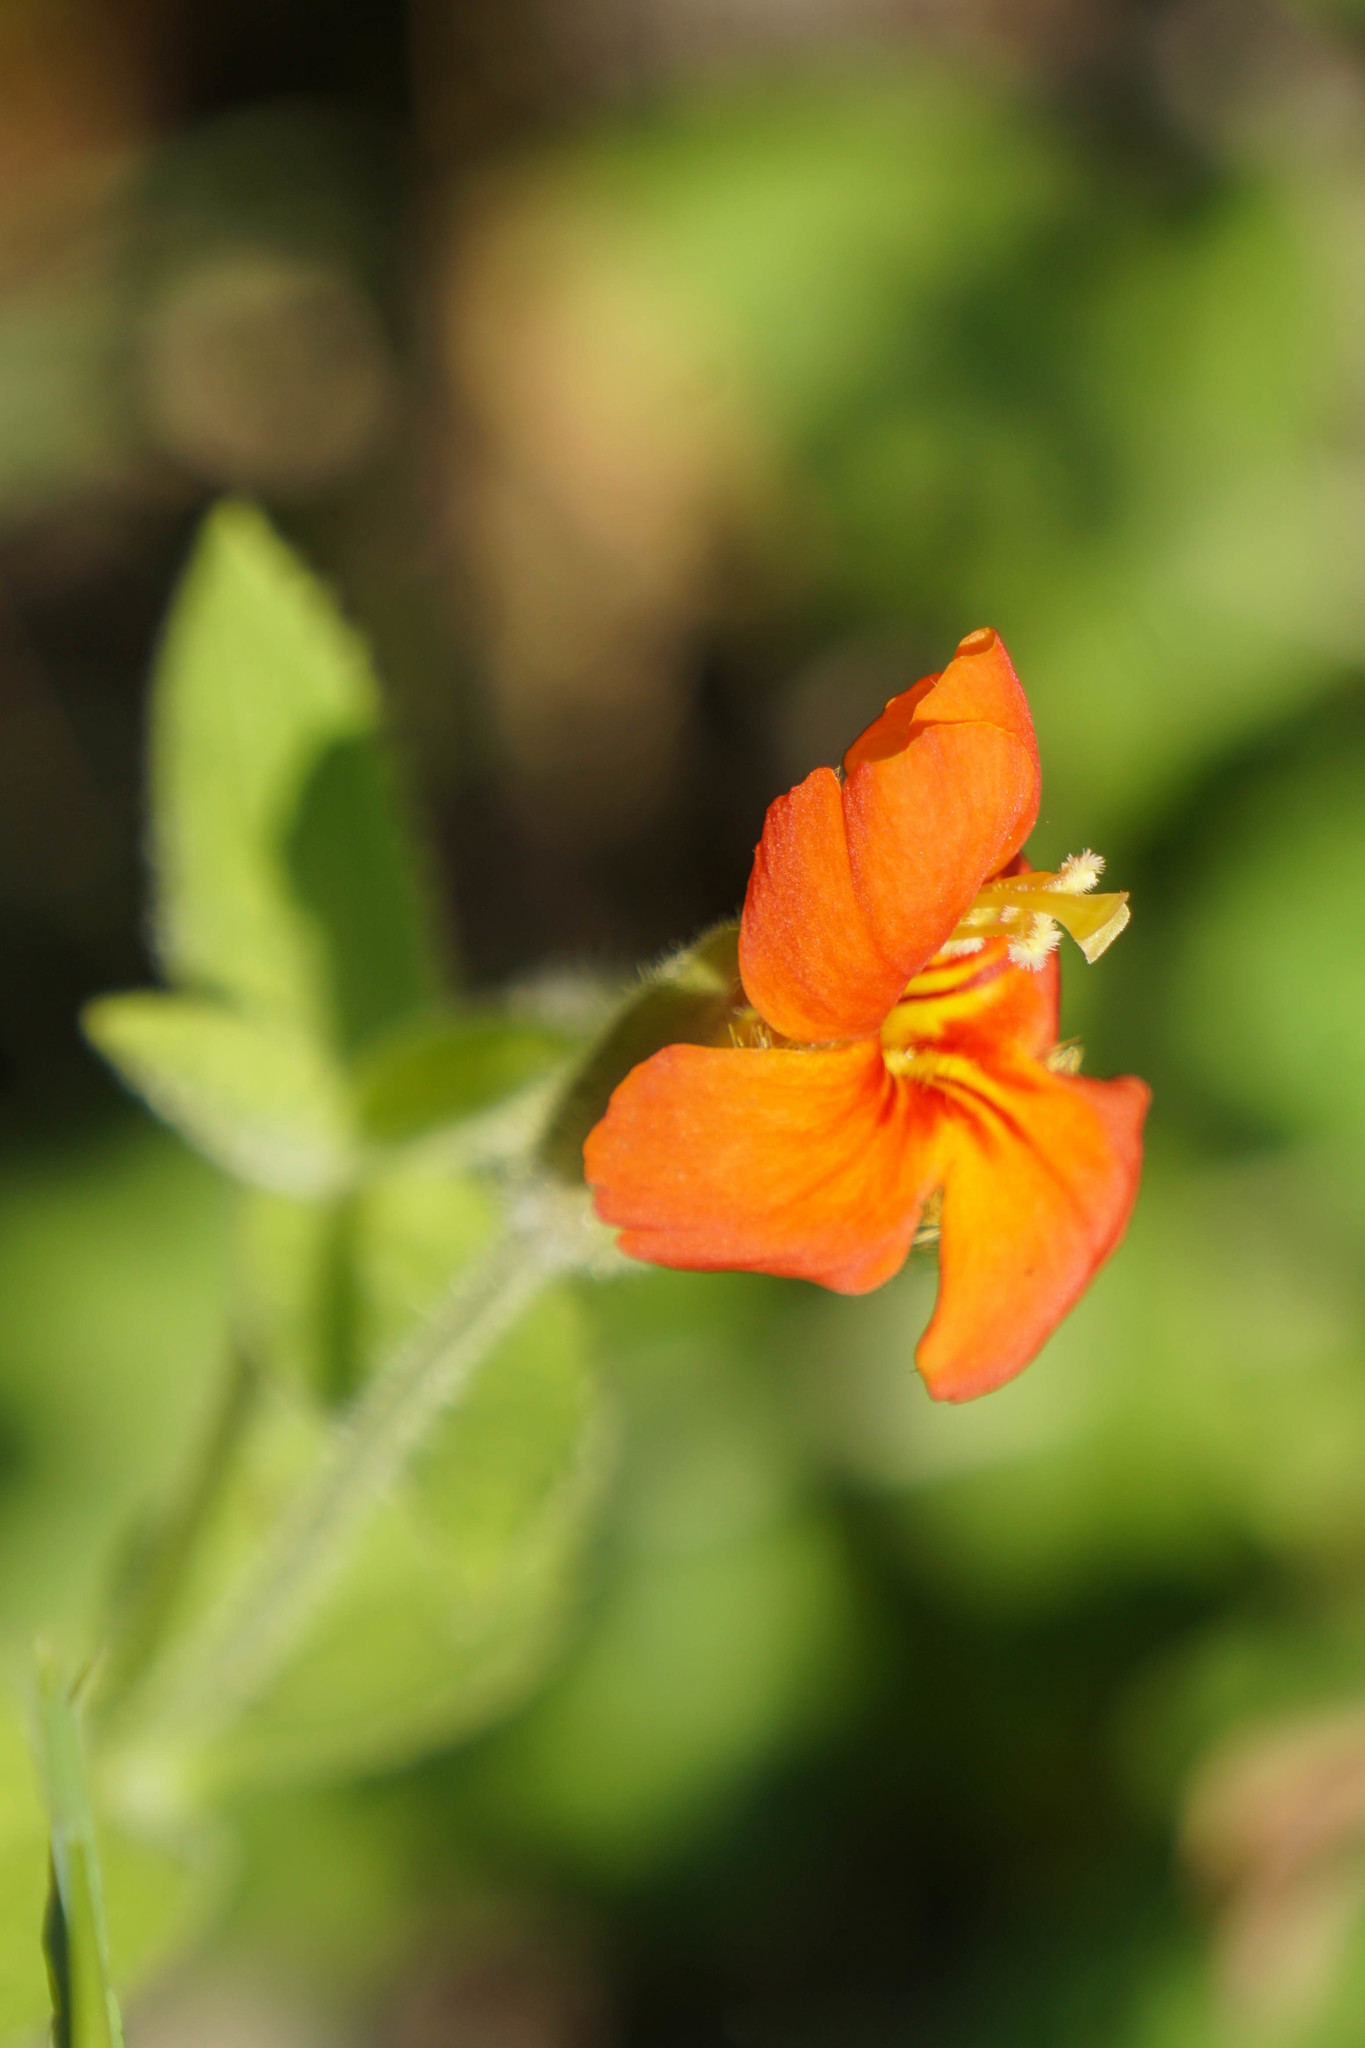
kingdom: Plantae
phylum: Tracheophyta
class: Magnoliopsida
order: Lamiales
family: Phrymaceae
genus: Erythranthe
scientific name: Erythranthe cardinalis
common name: Scarlet monkey-flower
